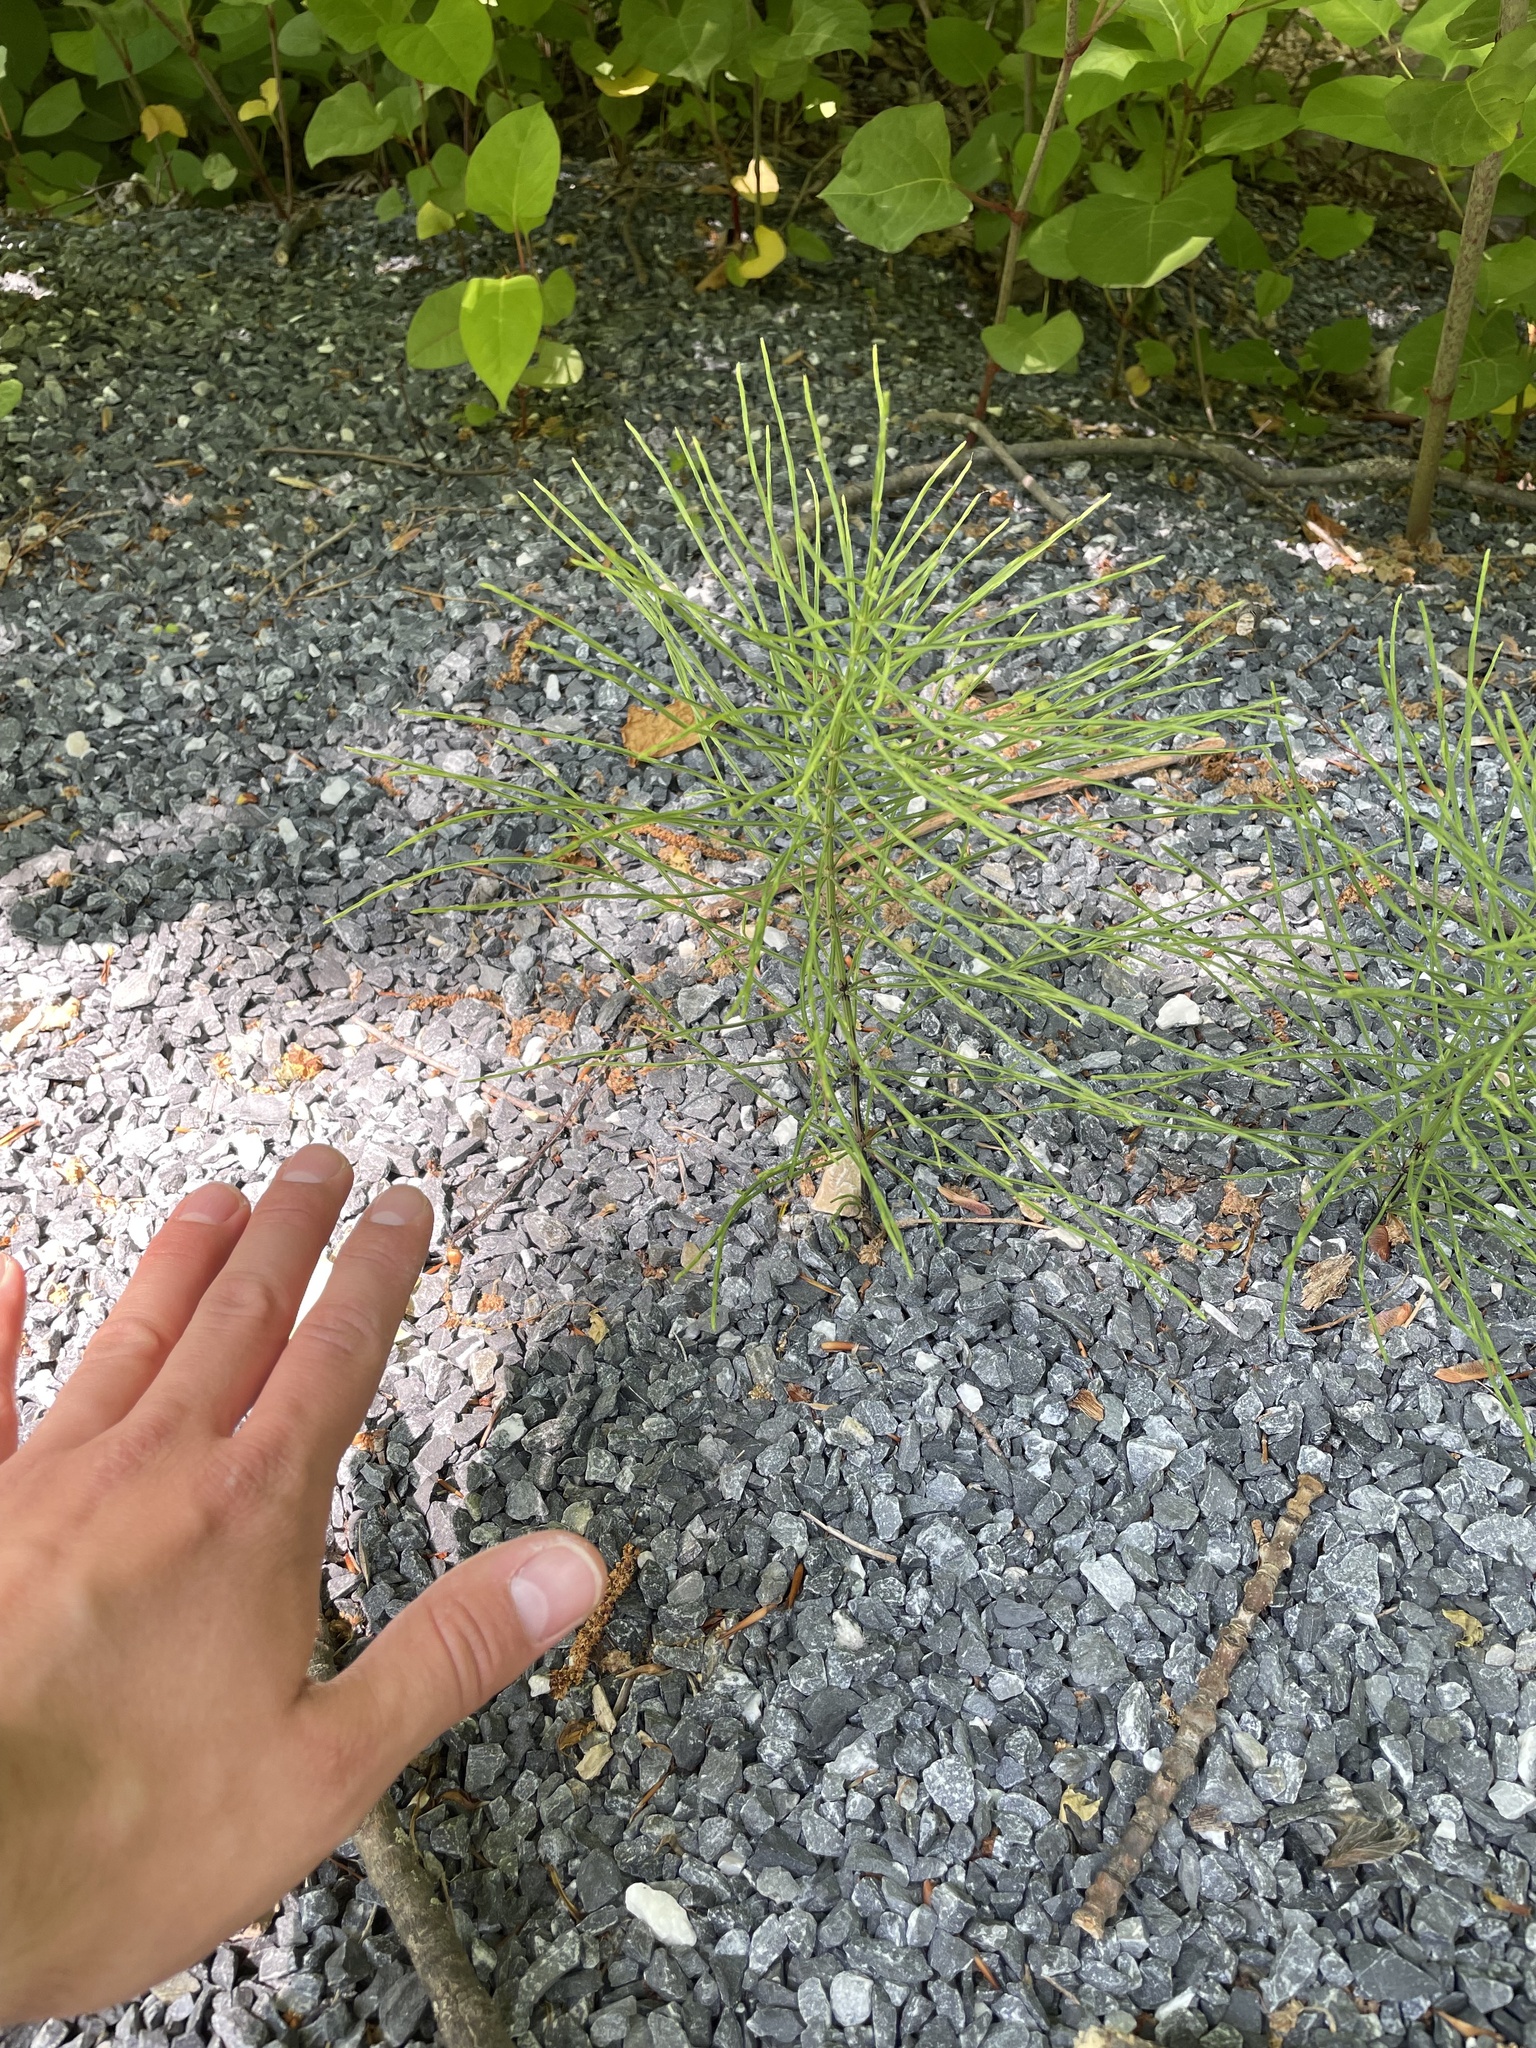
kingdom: Plantae
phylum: Tracheophyta
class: Polypodiopsida
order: Equisetales
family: Equisetaceae
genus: Equisetum
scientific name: Equisetum arvense
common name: Field horsetail
